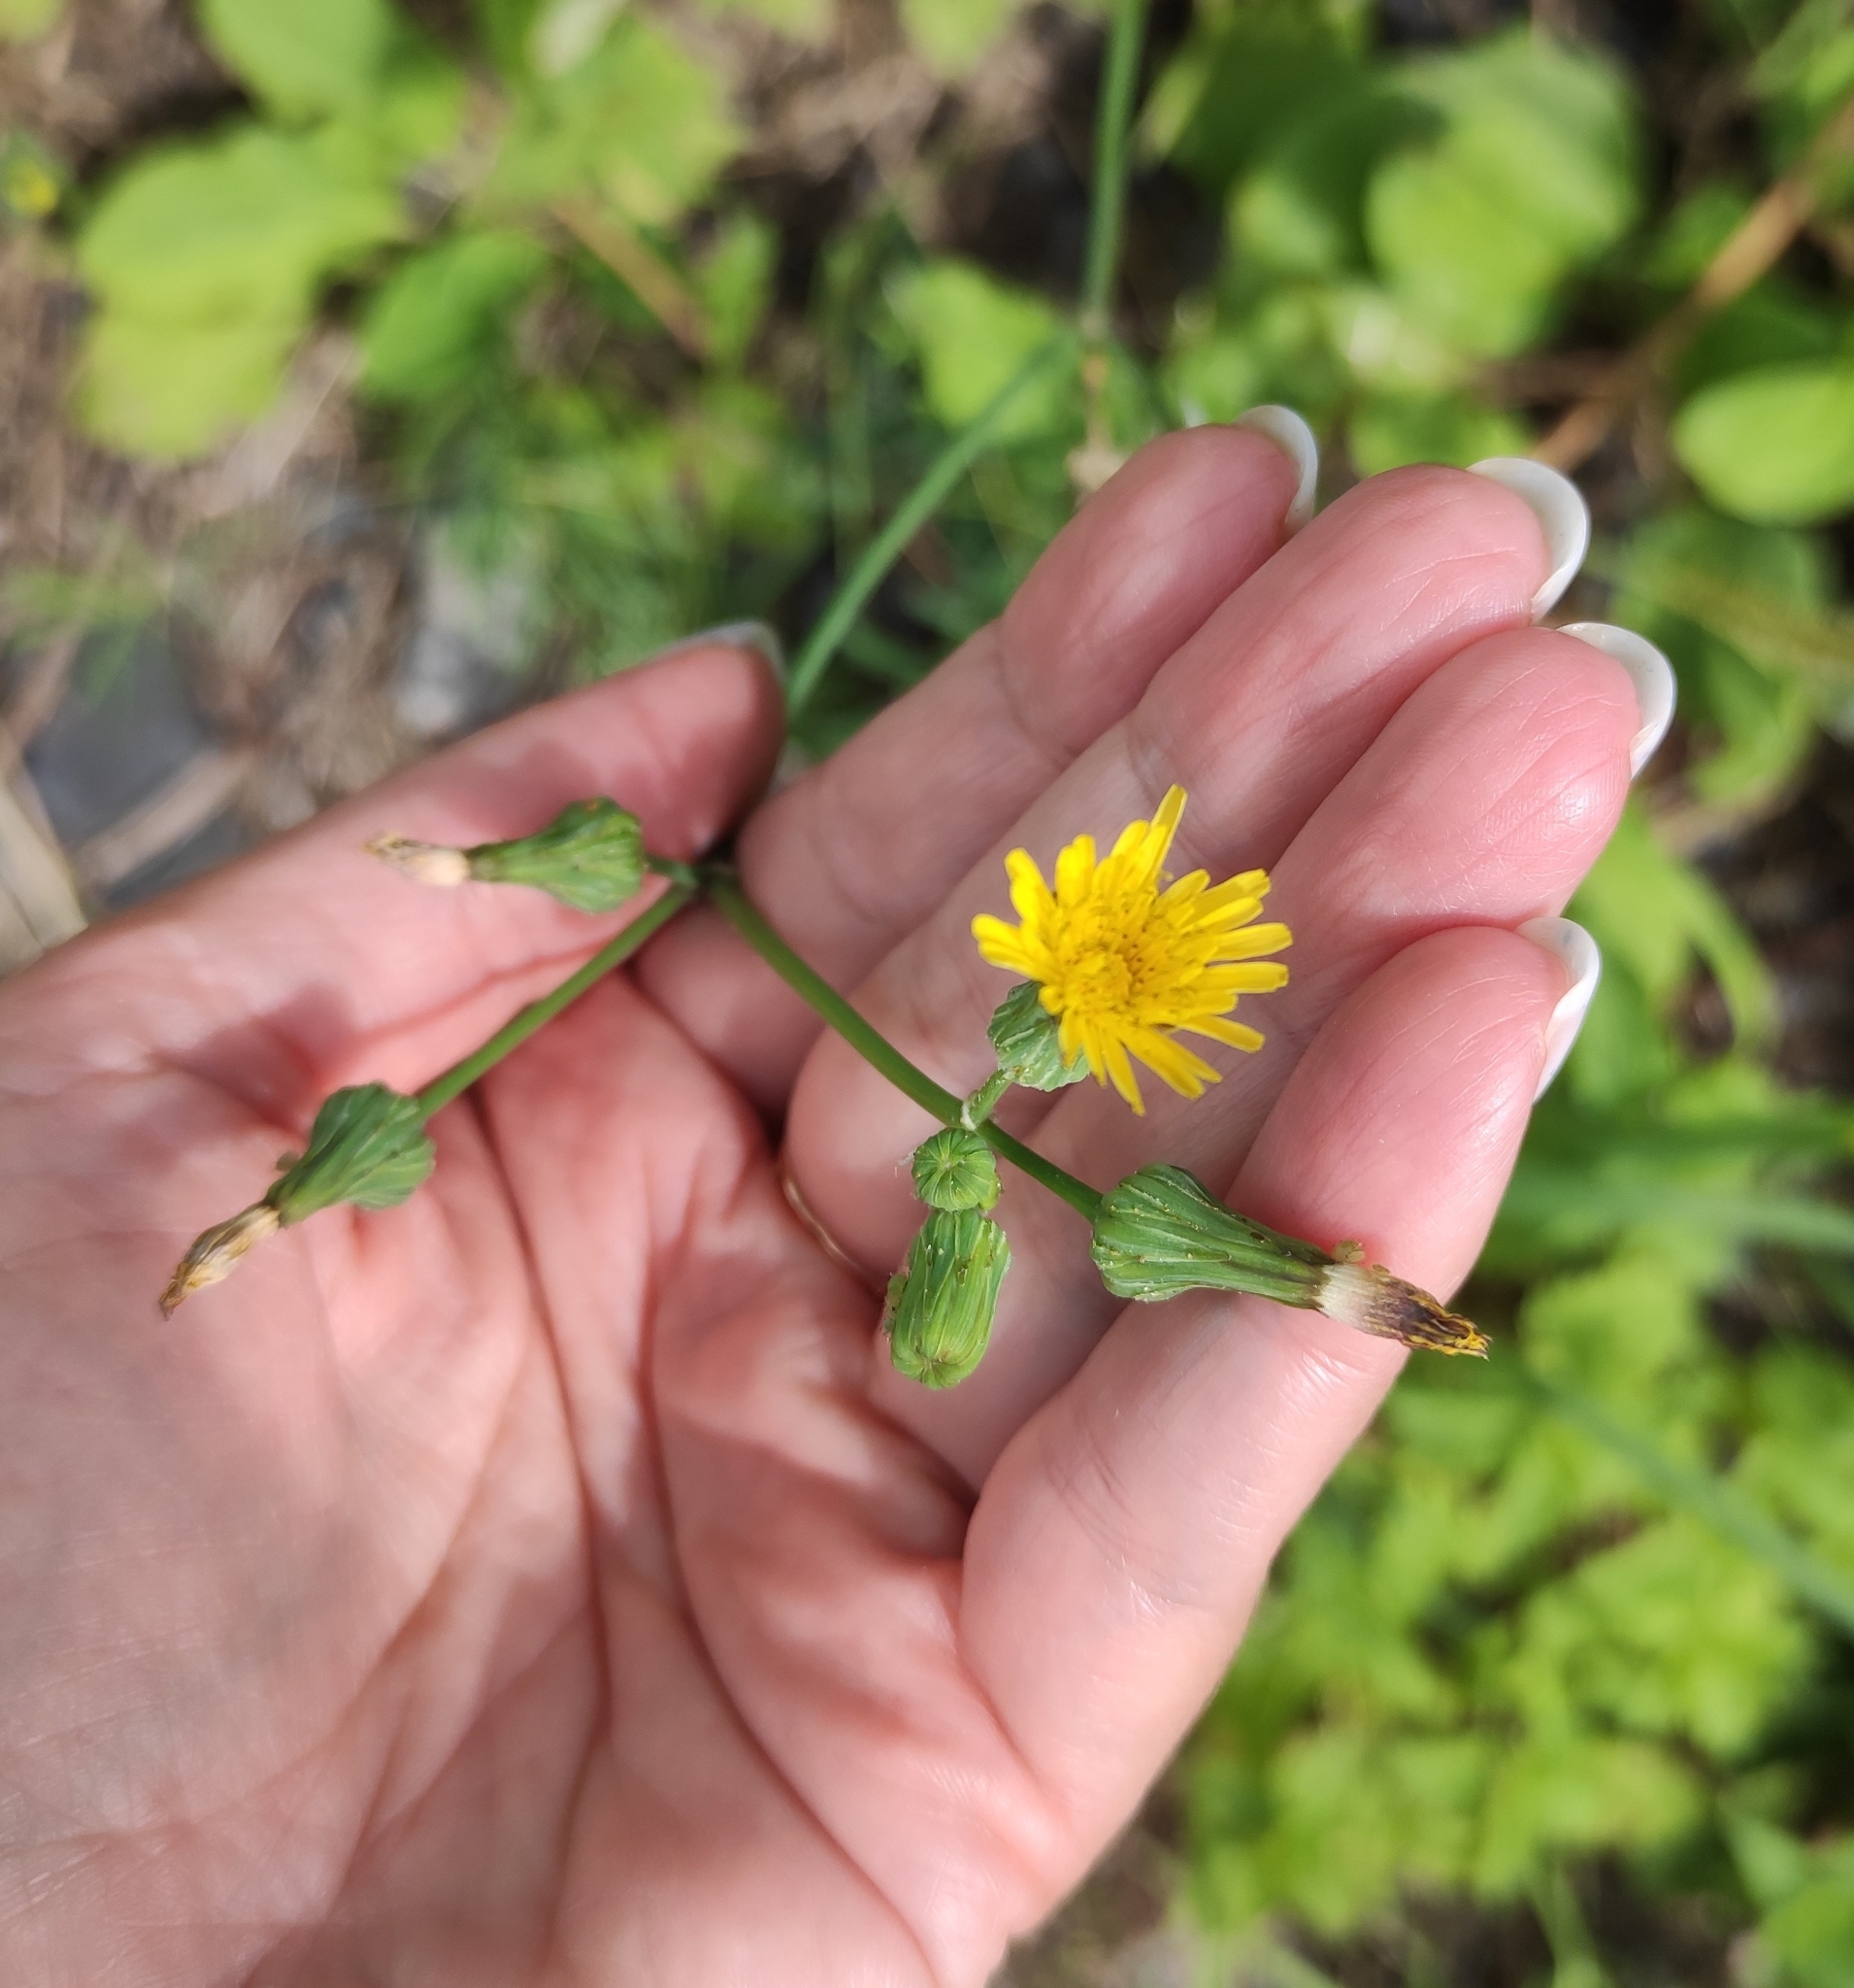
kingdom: Plantae
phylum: Tracheophyta
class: Magnoliopsida
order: Asterales
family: Asteraceae
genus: Sonchus
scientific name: Sonchus oleraceus
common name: Common sowthistle
